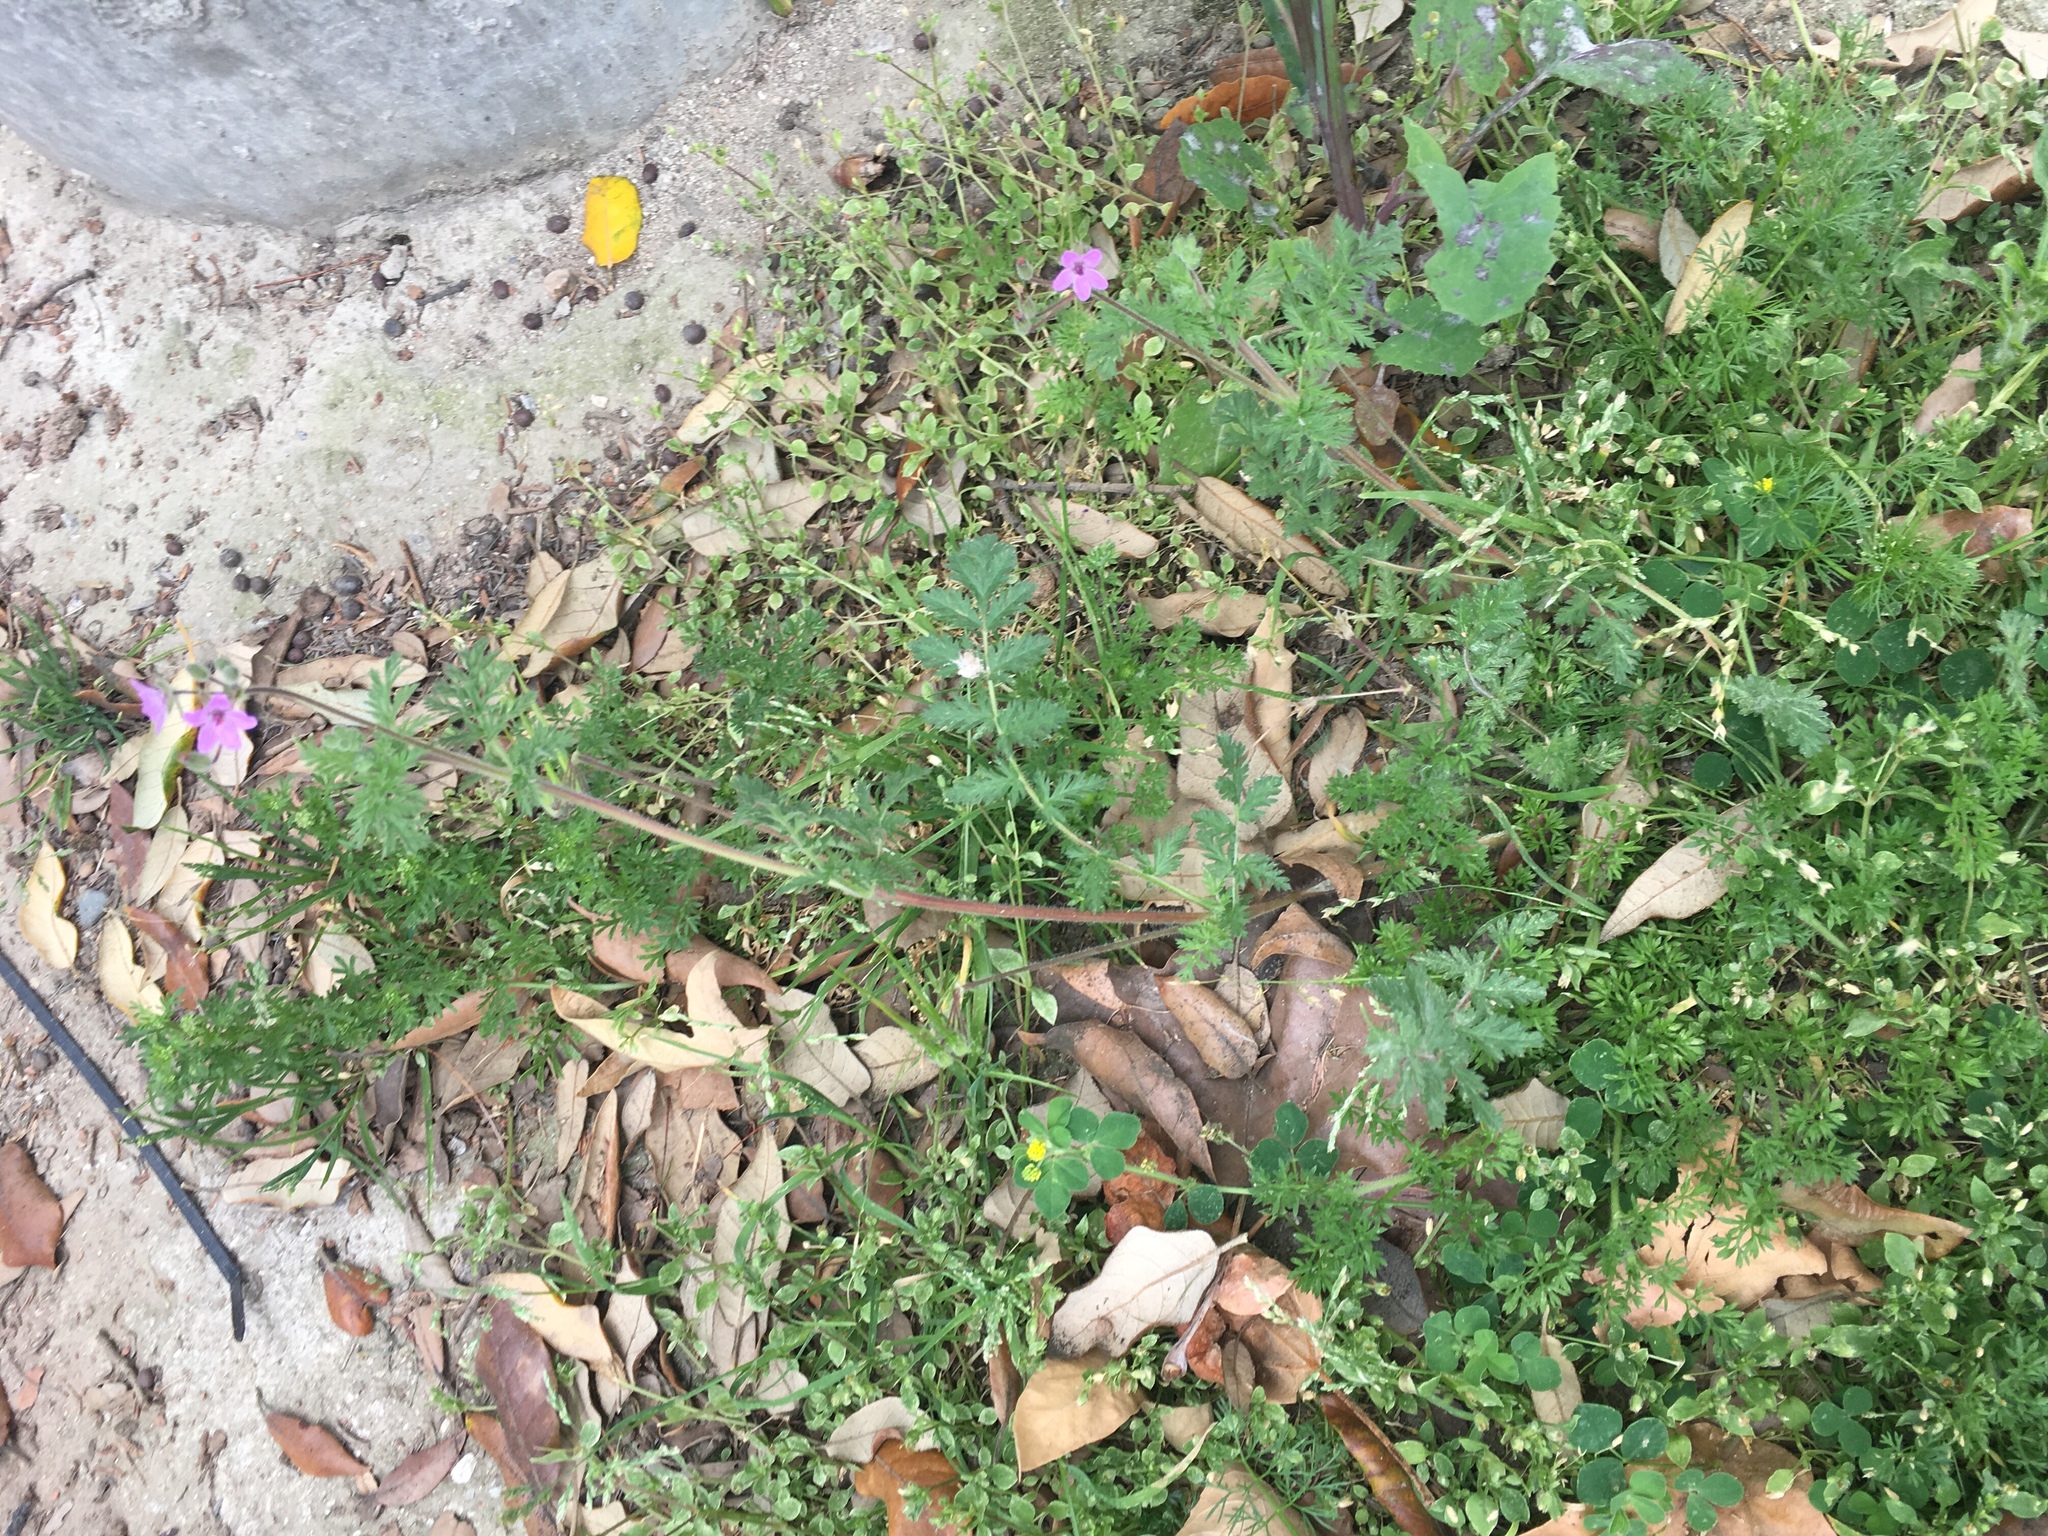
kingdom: Plantae
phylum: Tracheophyta
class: Magnoliopsida
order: Geraniales
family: Geraniaceae
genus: Erodium
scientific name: Erodium cicutarium
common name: Common stork's-bill
